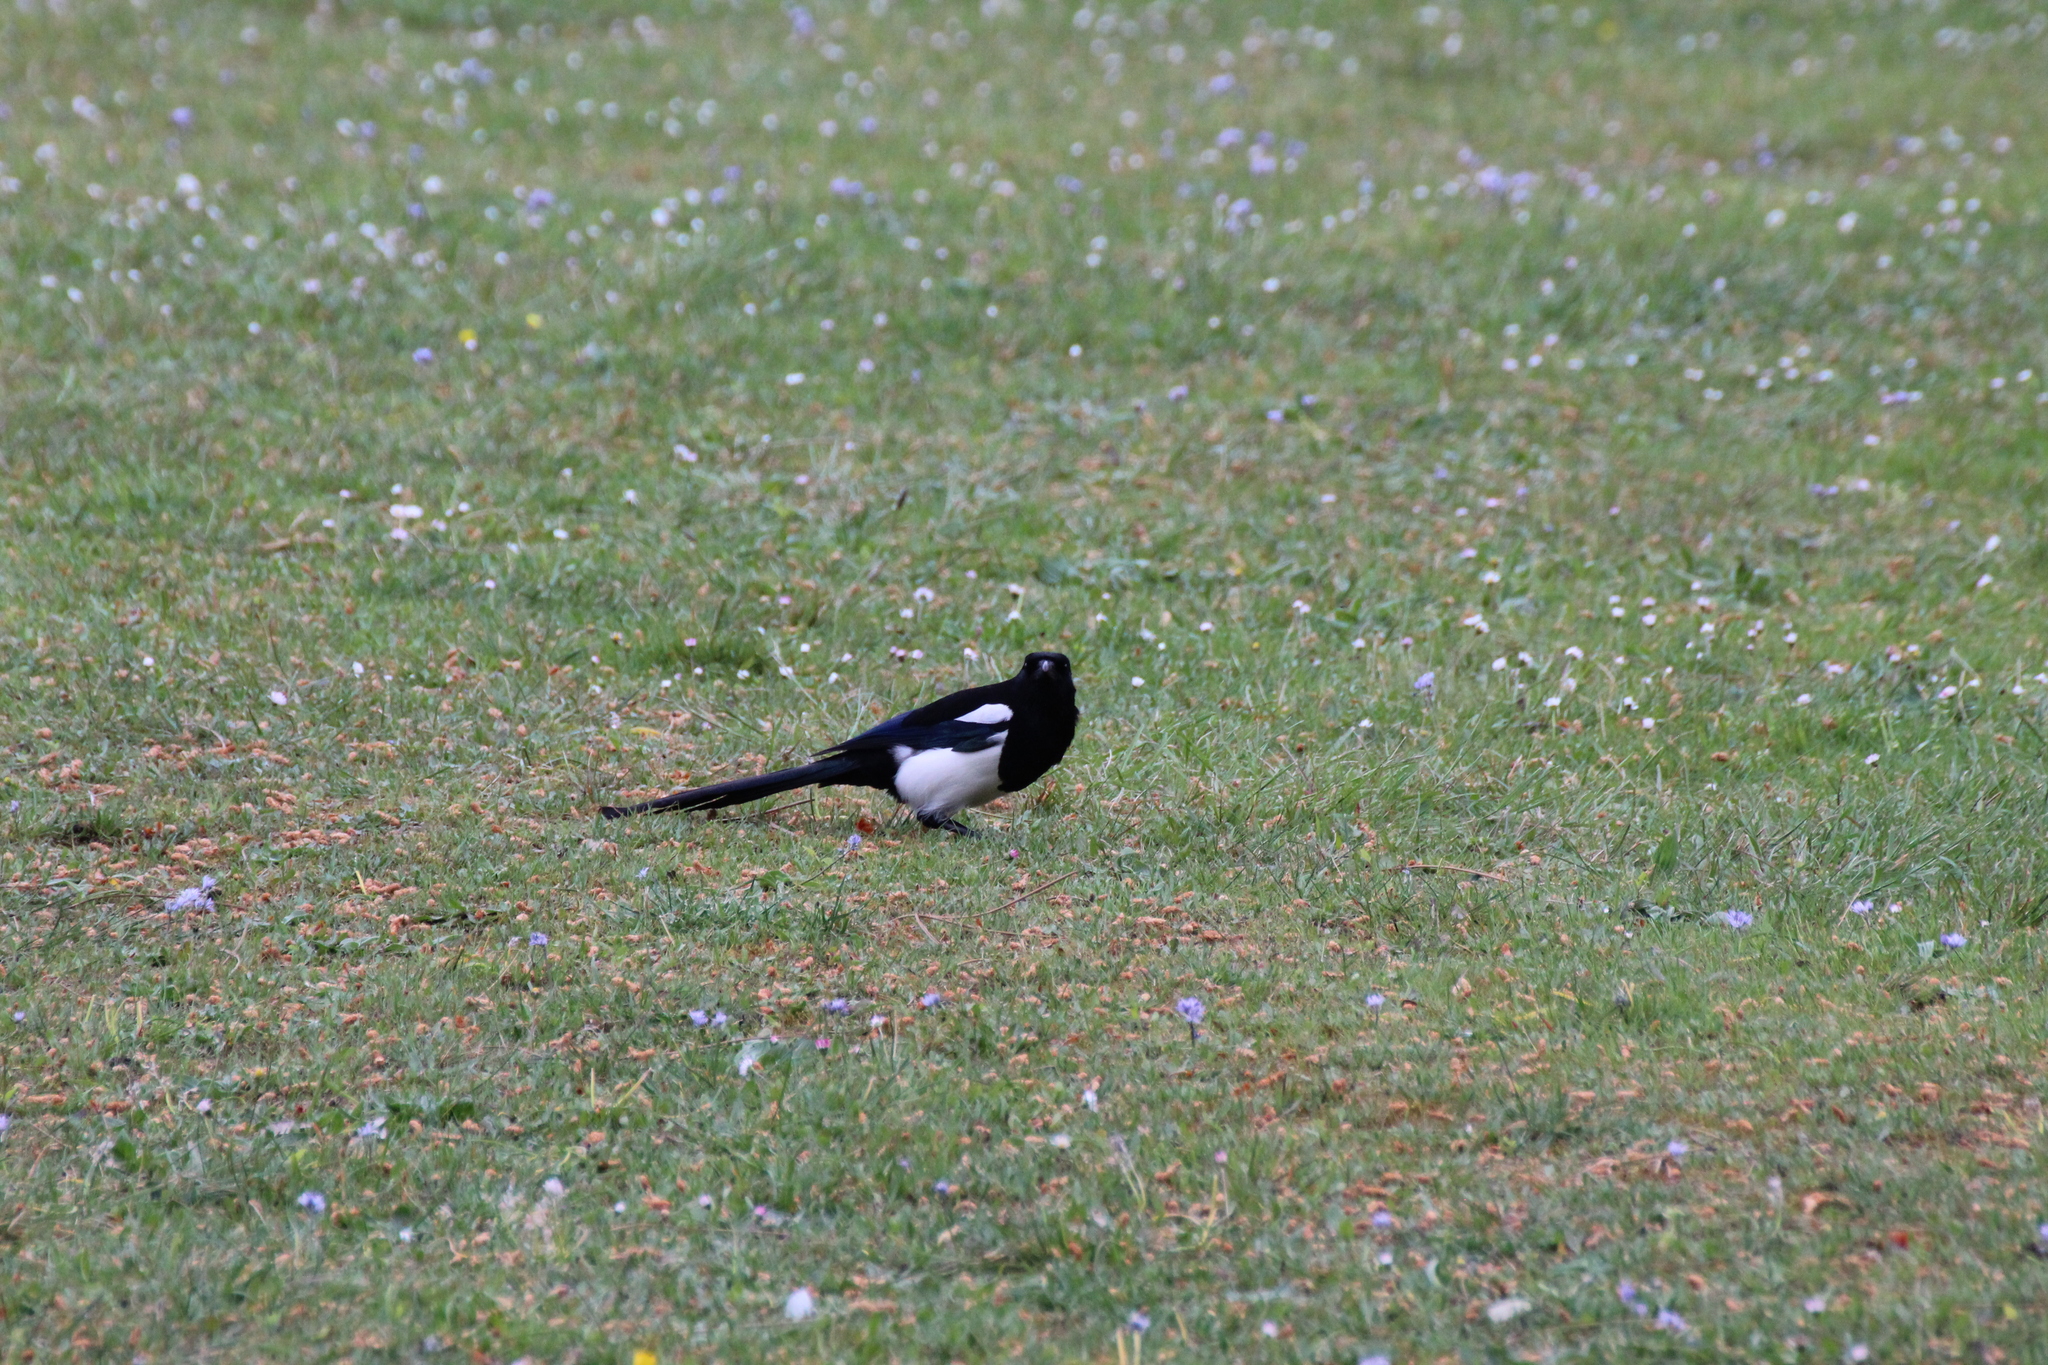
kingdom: Animalia
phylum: Chordata
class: Aves
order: Passeriformes
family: Corvidae
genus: Pica
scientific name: Pica pica
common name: Eurasian magpie
